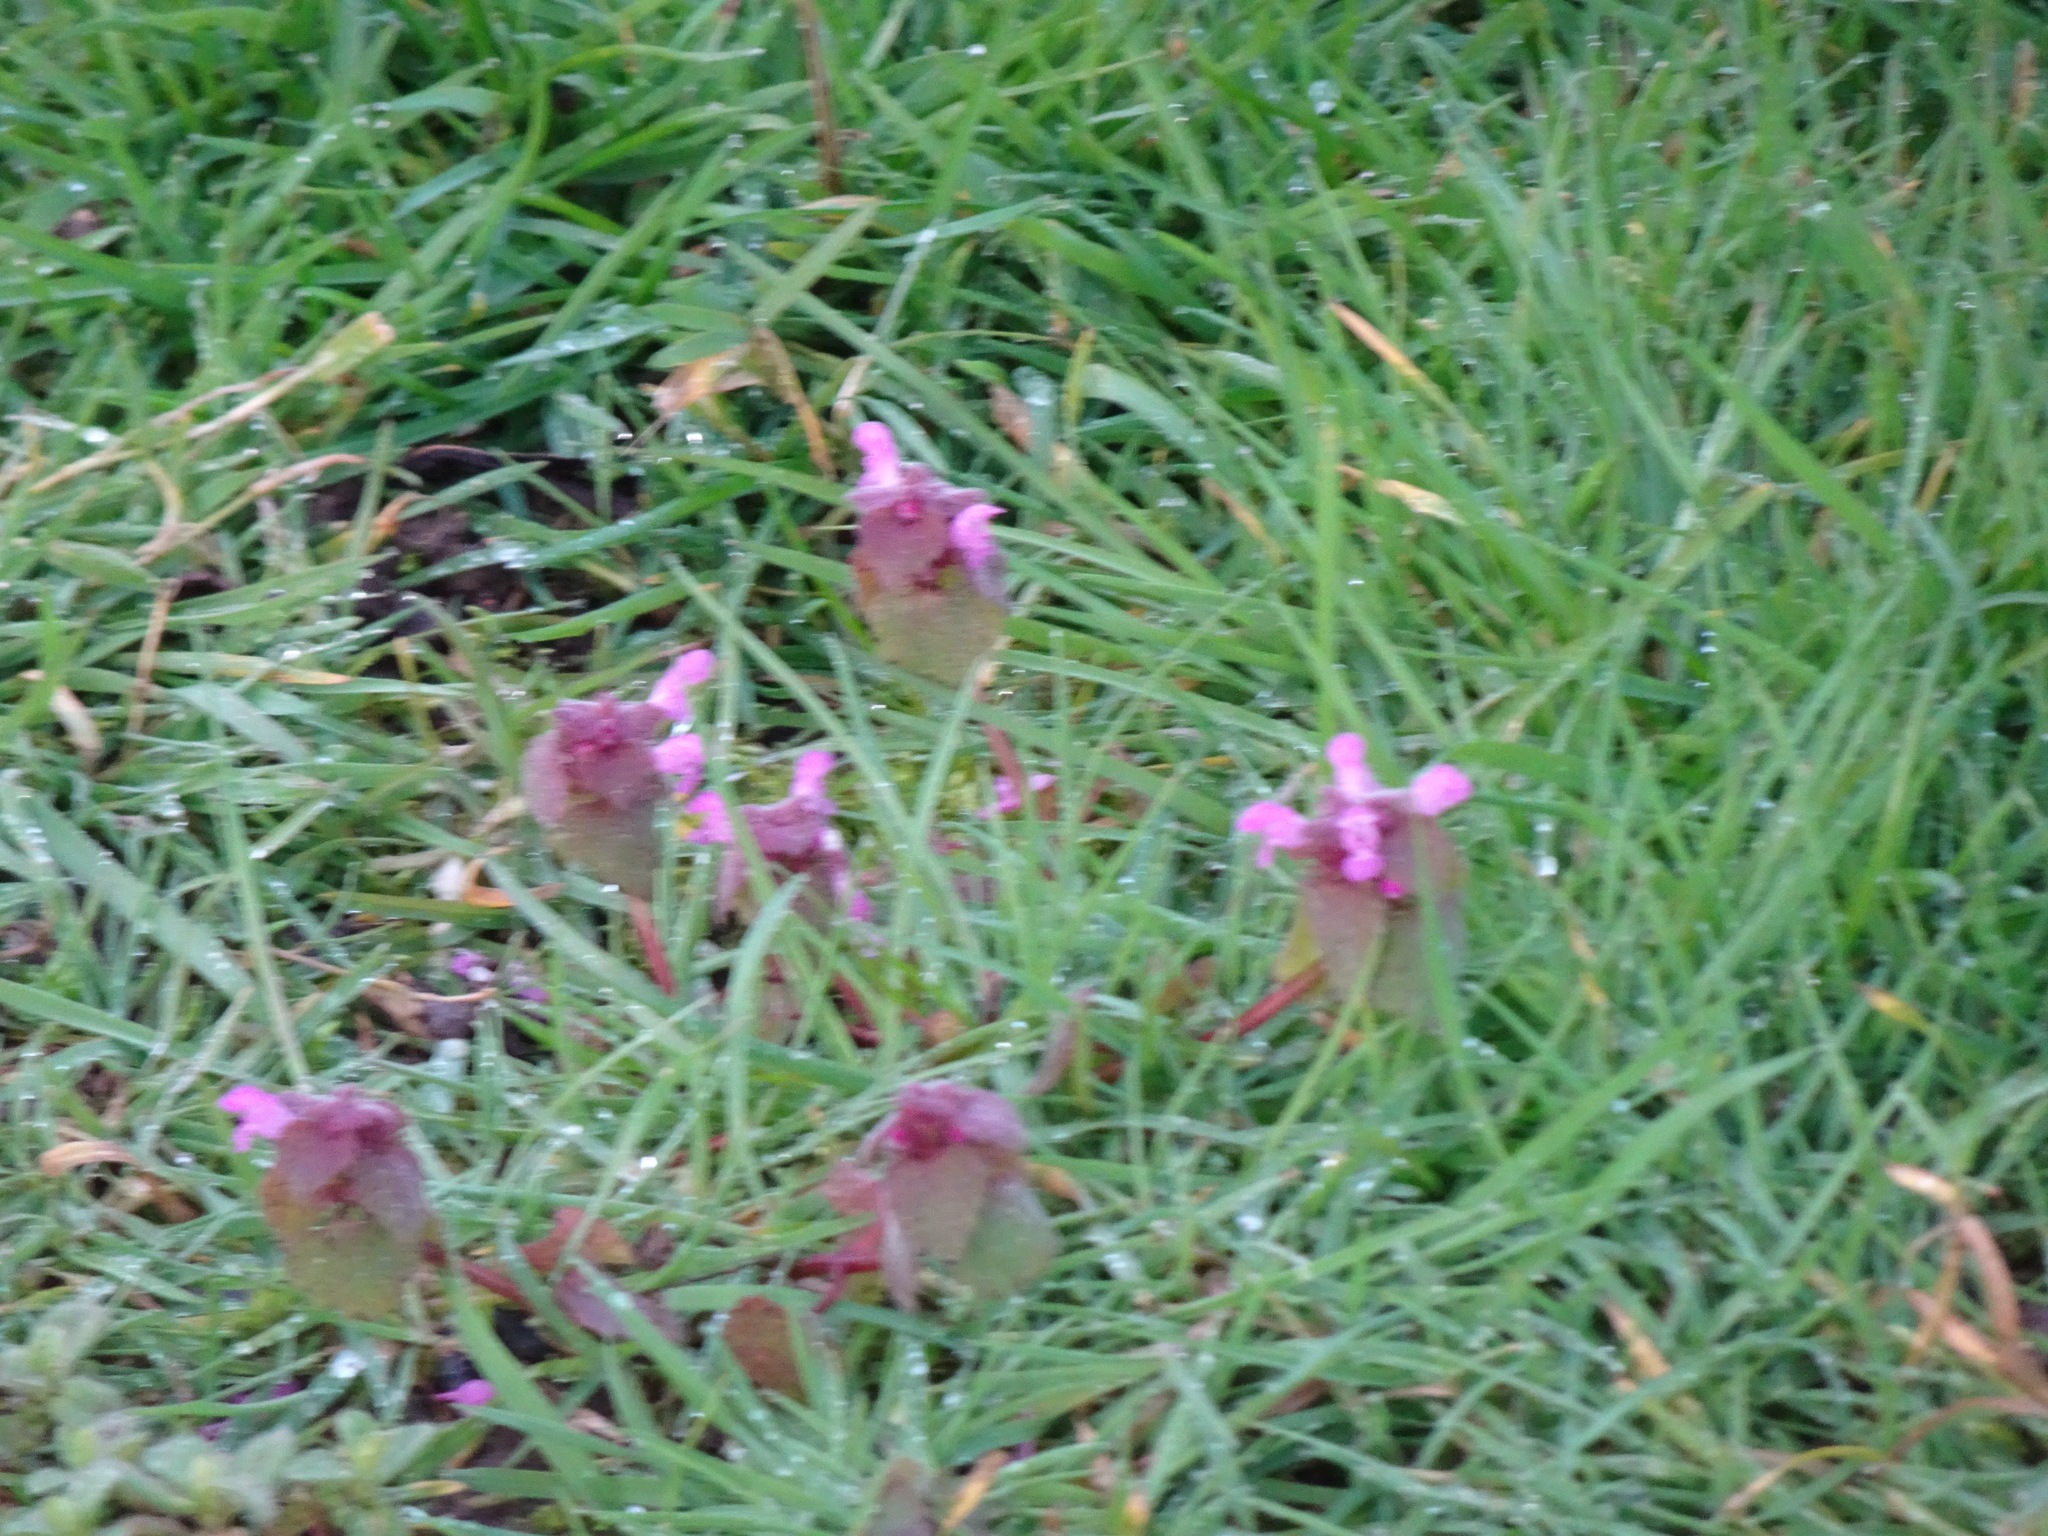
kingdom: Plantae
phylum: Tracheophyta
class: Magnoliopsida
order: Lamiales
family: Lamiaceae
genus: Lamium
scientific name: Lamium purpureum
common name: Red dead-nettle
